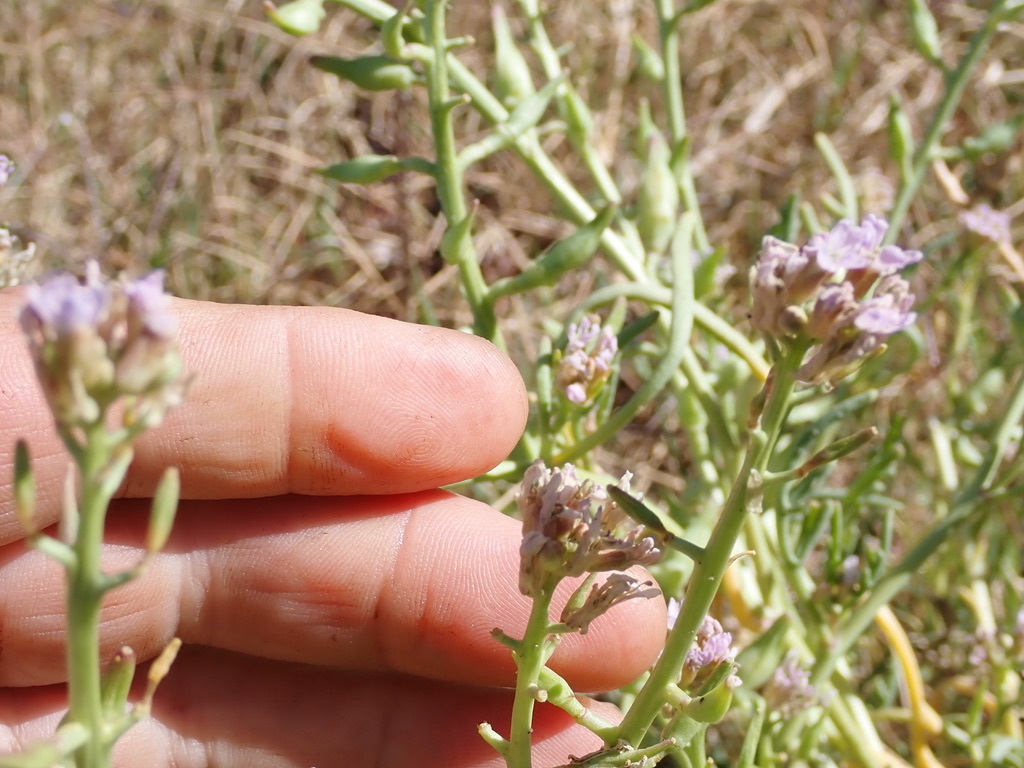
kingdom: Plantae
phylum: Tracheophyta
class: Magnoliopsida
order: Brassicales
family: Brassicaceae
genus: Cakile
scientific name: Cakile maritima
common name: Sea rocket
